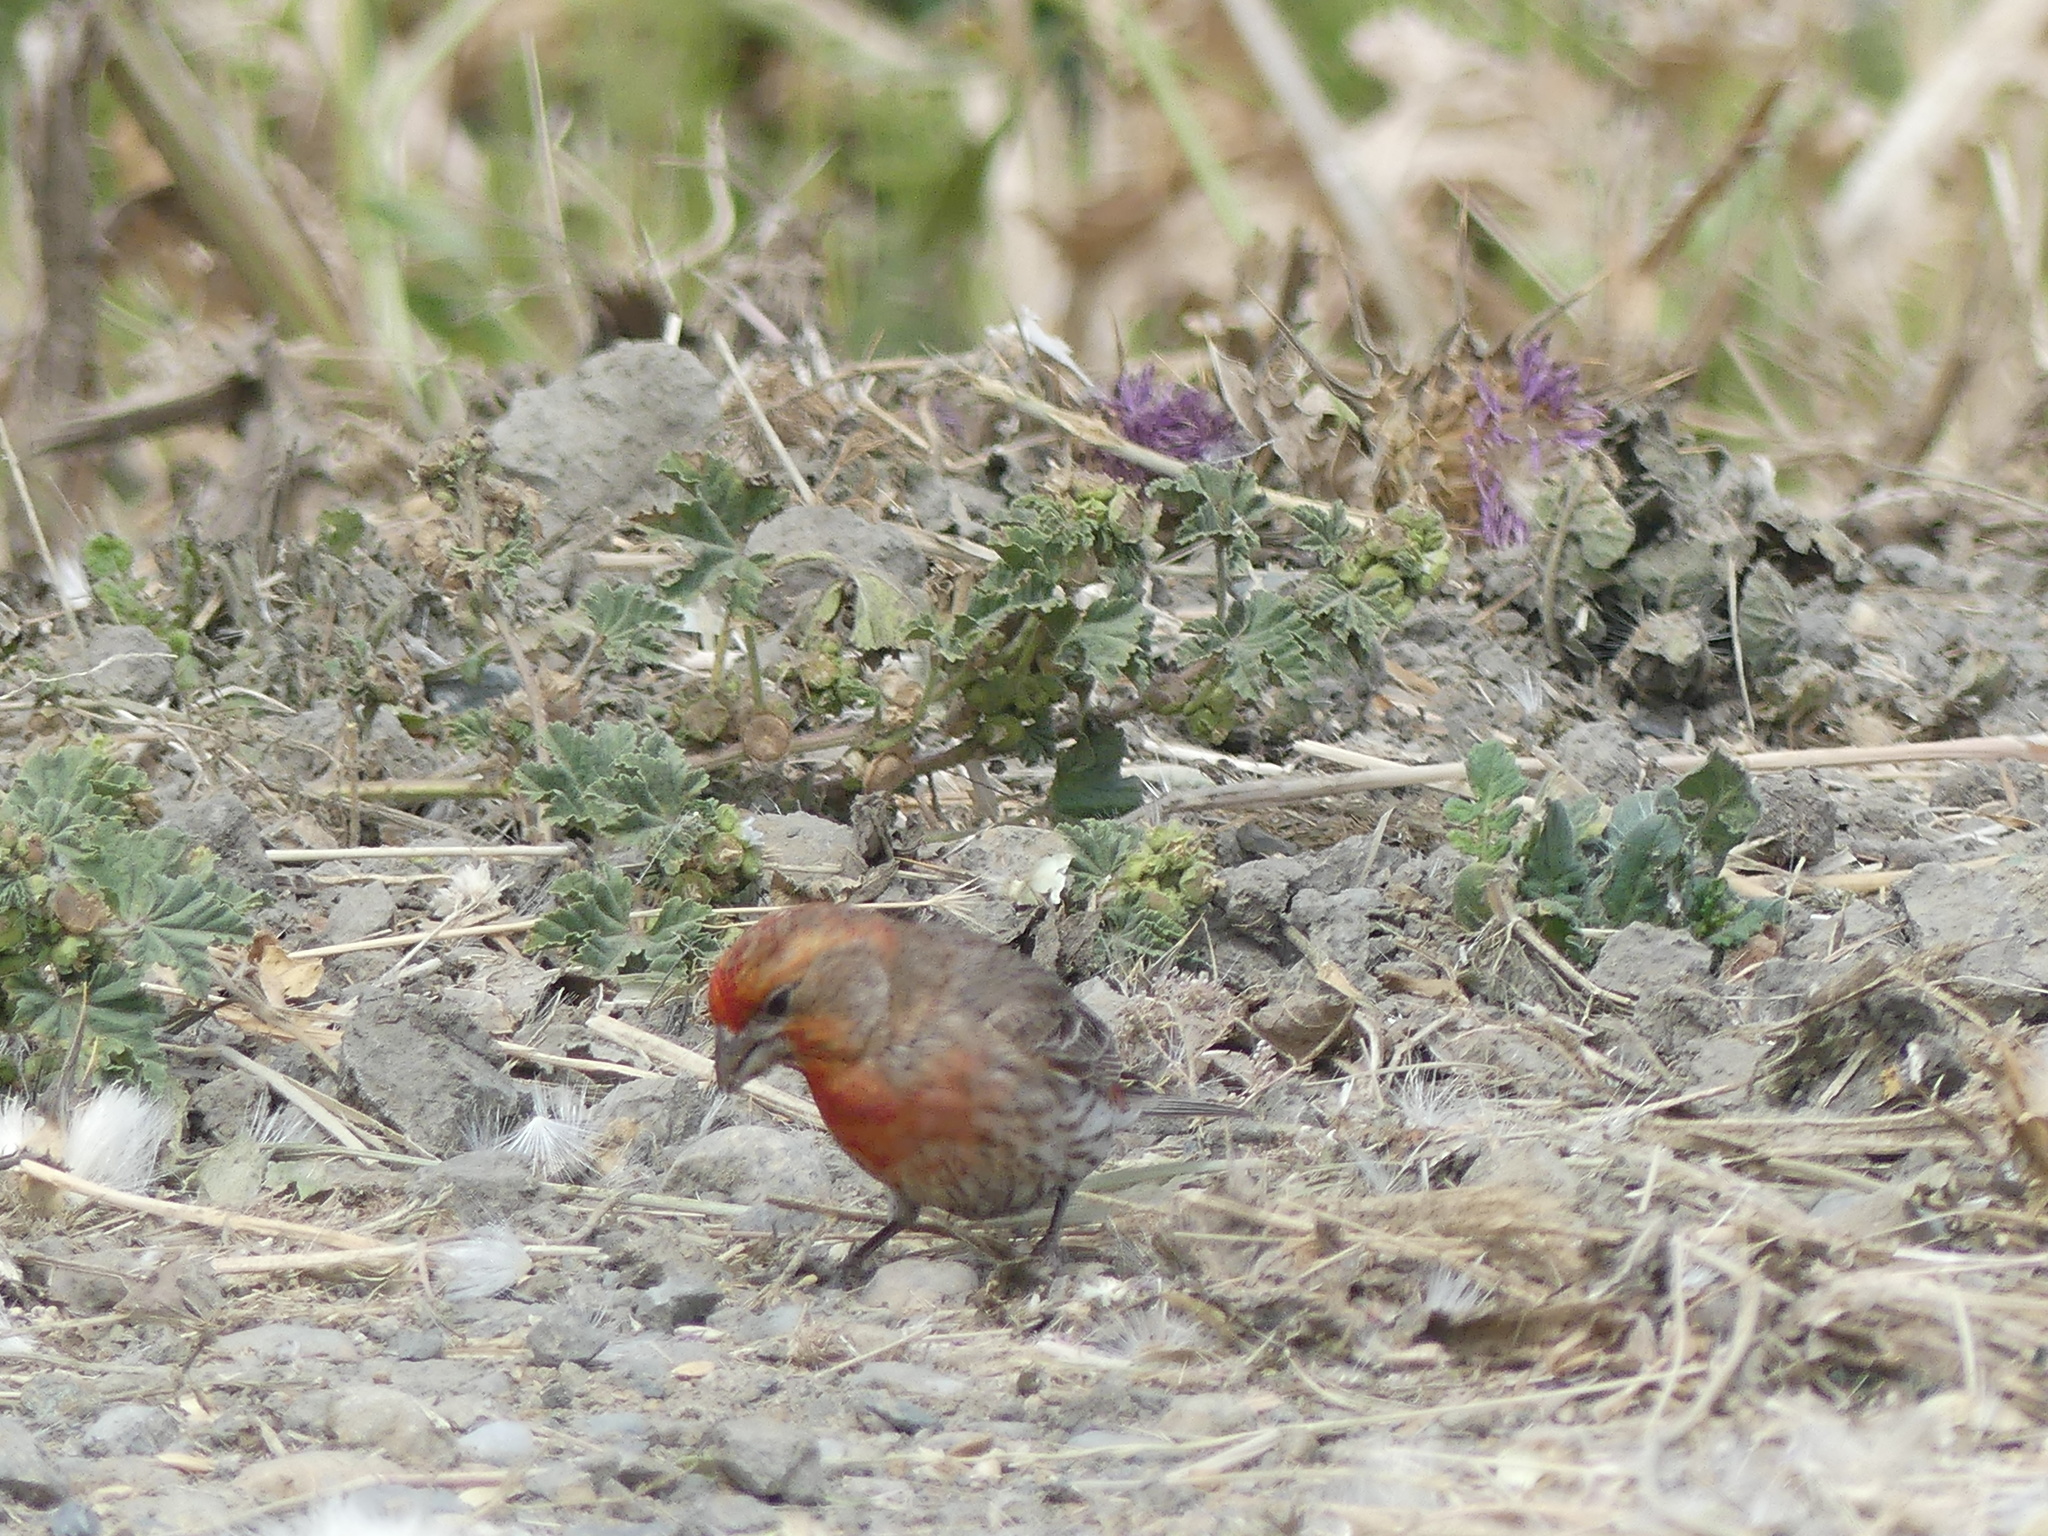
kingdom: Animalia
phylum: Chordata
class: Aves
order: Passeriformes
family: Fringillidae
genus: Haemorhous
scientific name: Haemorhous mexicanus
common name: House finch
